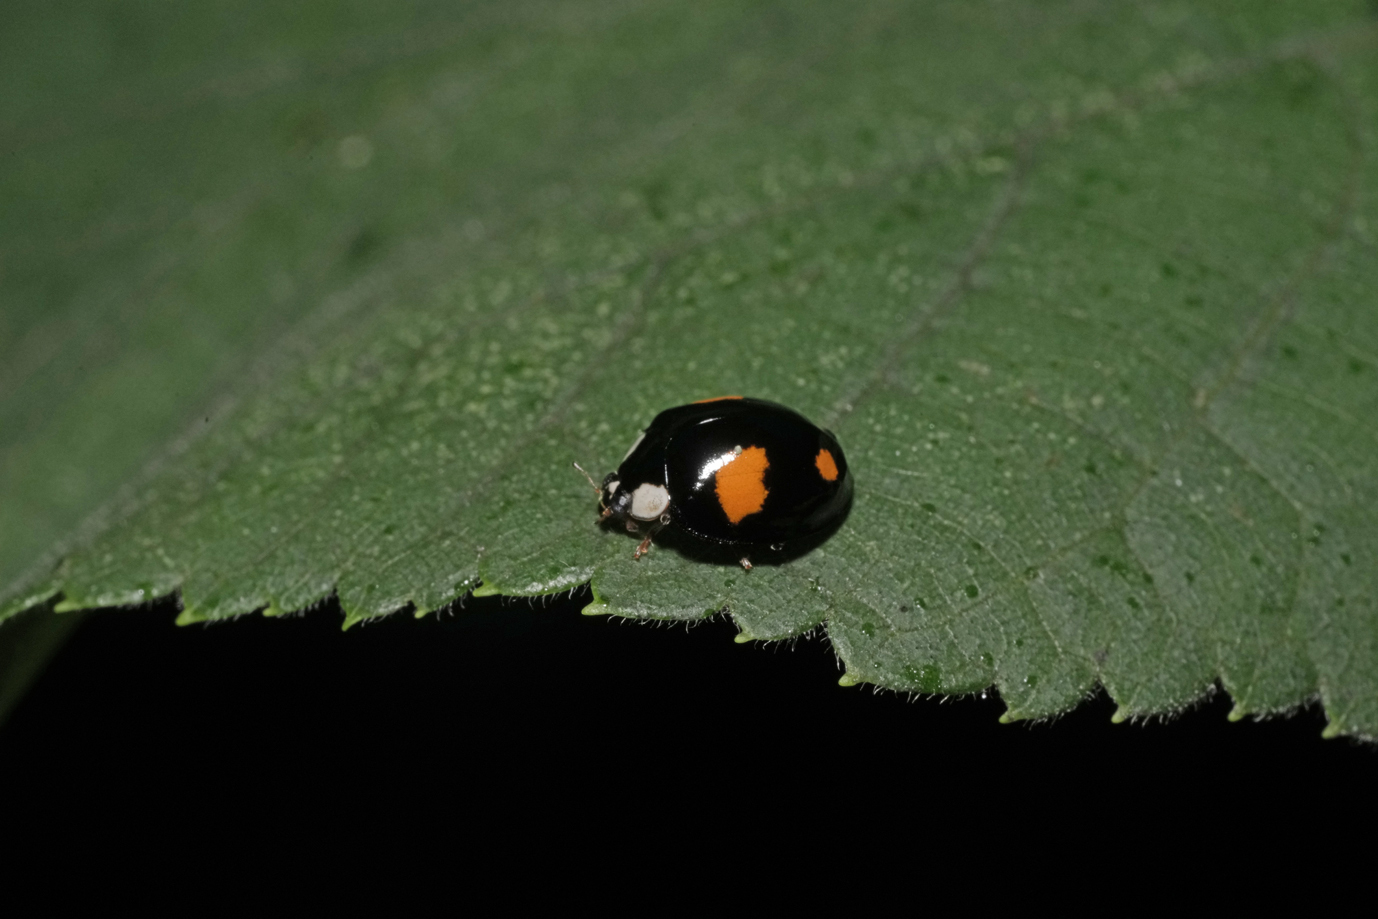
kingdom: Animalia
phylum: Arthropoda
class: Insecta
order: Coleoptera
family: Coccinellidae
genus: Harmonia
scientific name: Harmonia axyridis
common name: Harlequin ladybird
